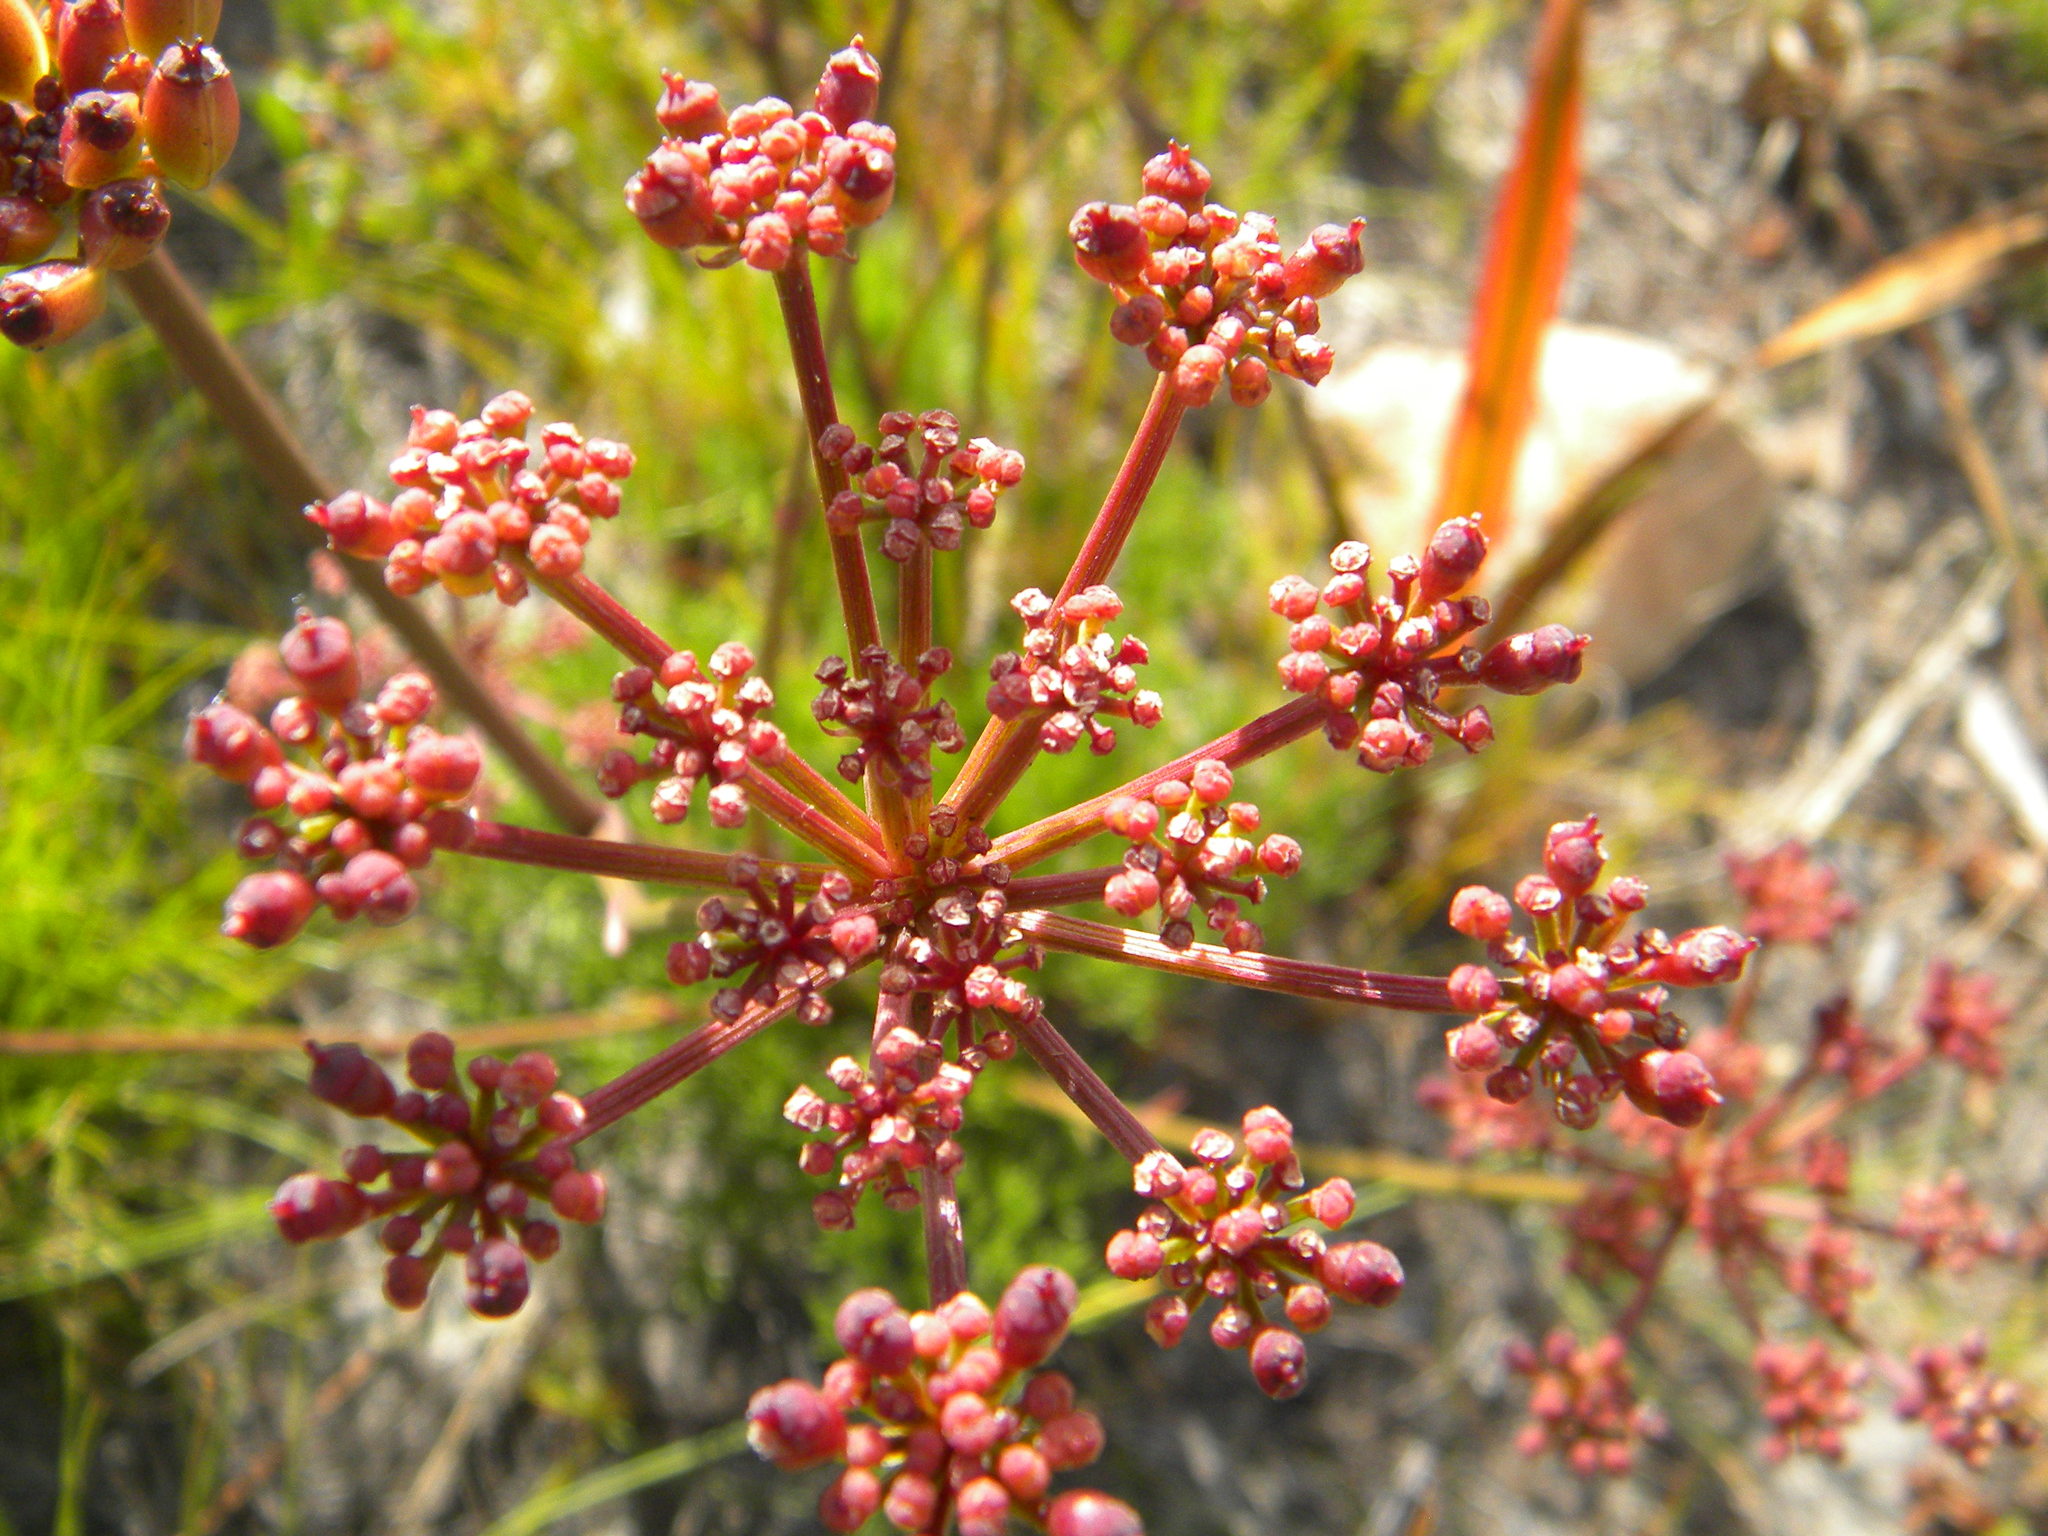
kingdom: Plantae
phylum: Tracheophyta
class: Magnoliopsida
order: Apiales
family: Apiaceae
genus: Nanobubon
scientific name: Nanobubon strictum
